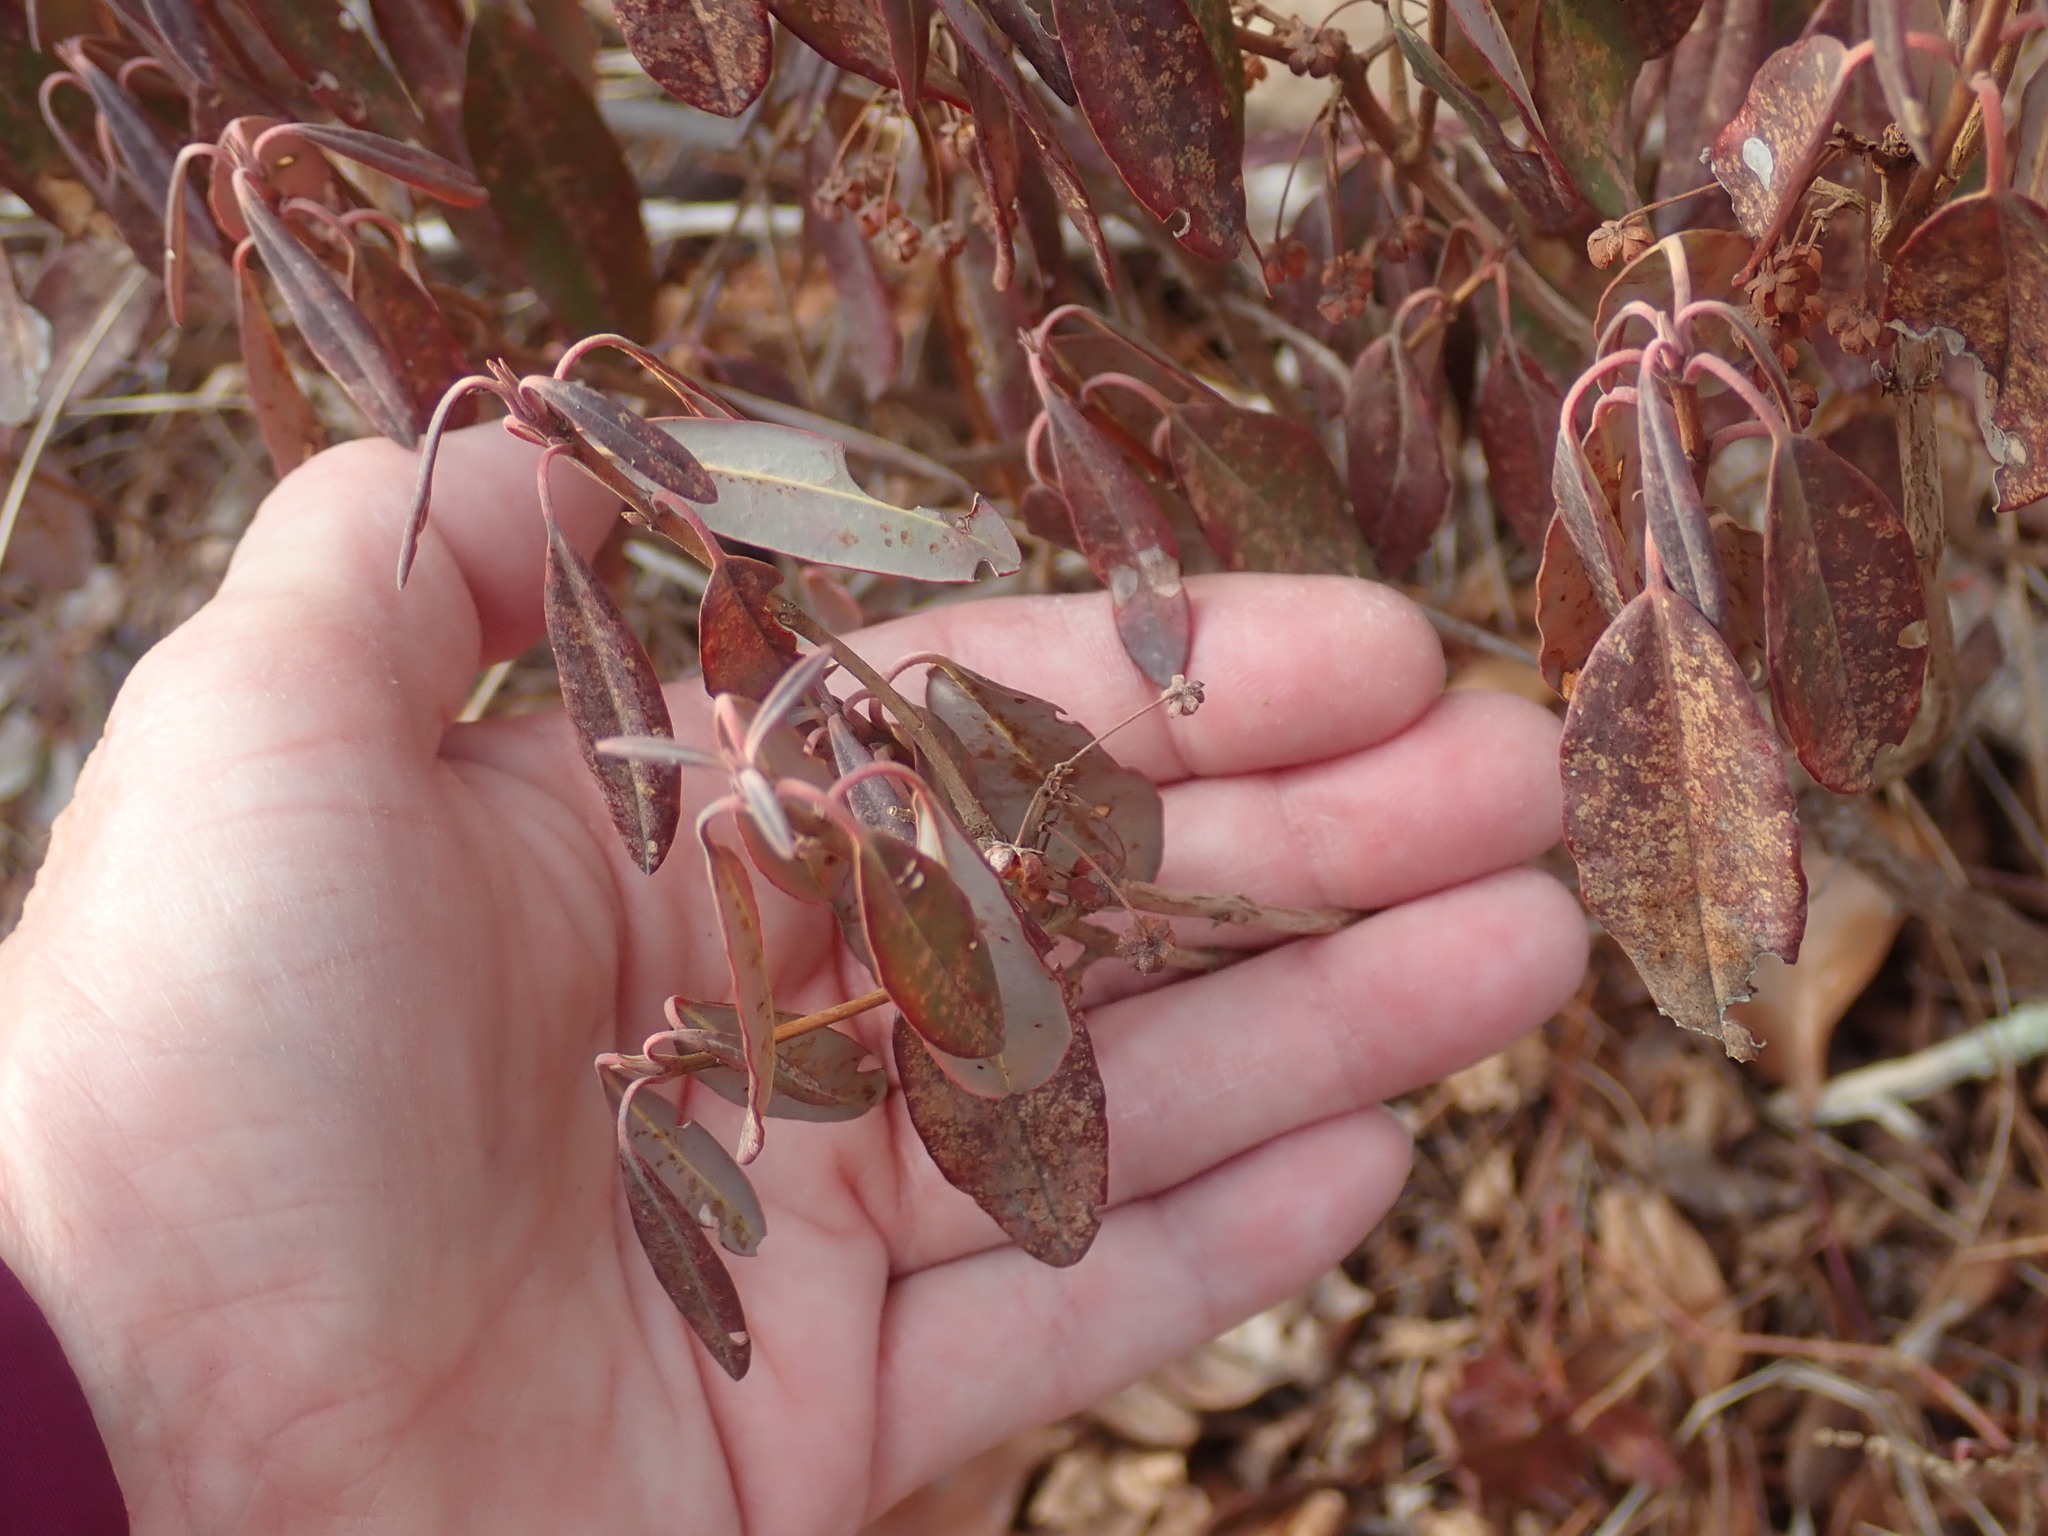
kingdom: Plantae
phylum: Tracheophyta
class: Magnoliopsida
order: Ericales
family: Ericaceae
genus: Kalmia
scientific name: Kalmia angustifolia
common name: Sheep-laurel
